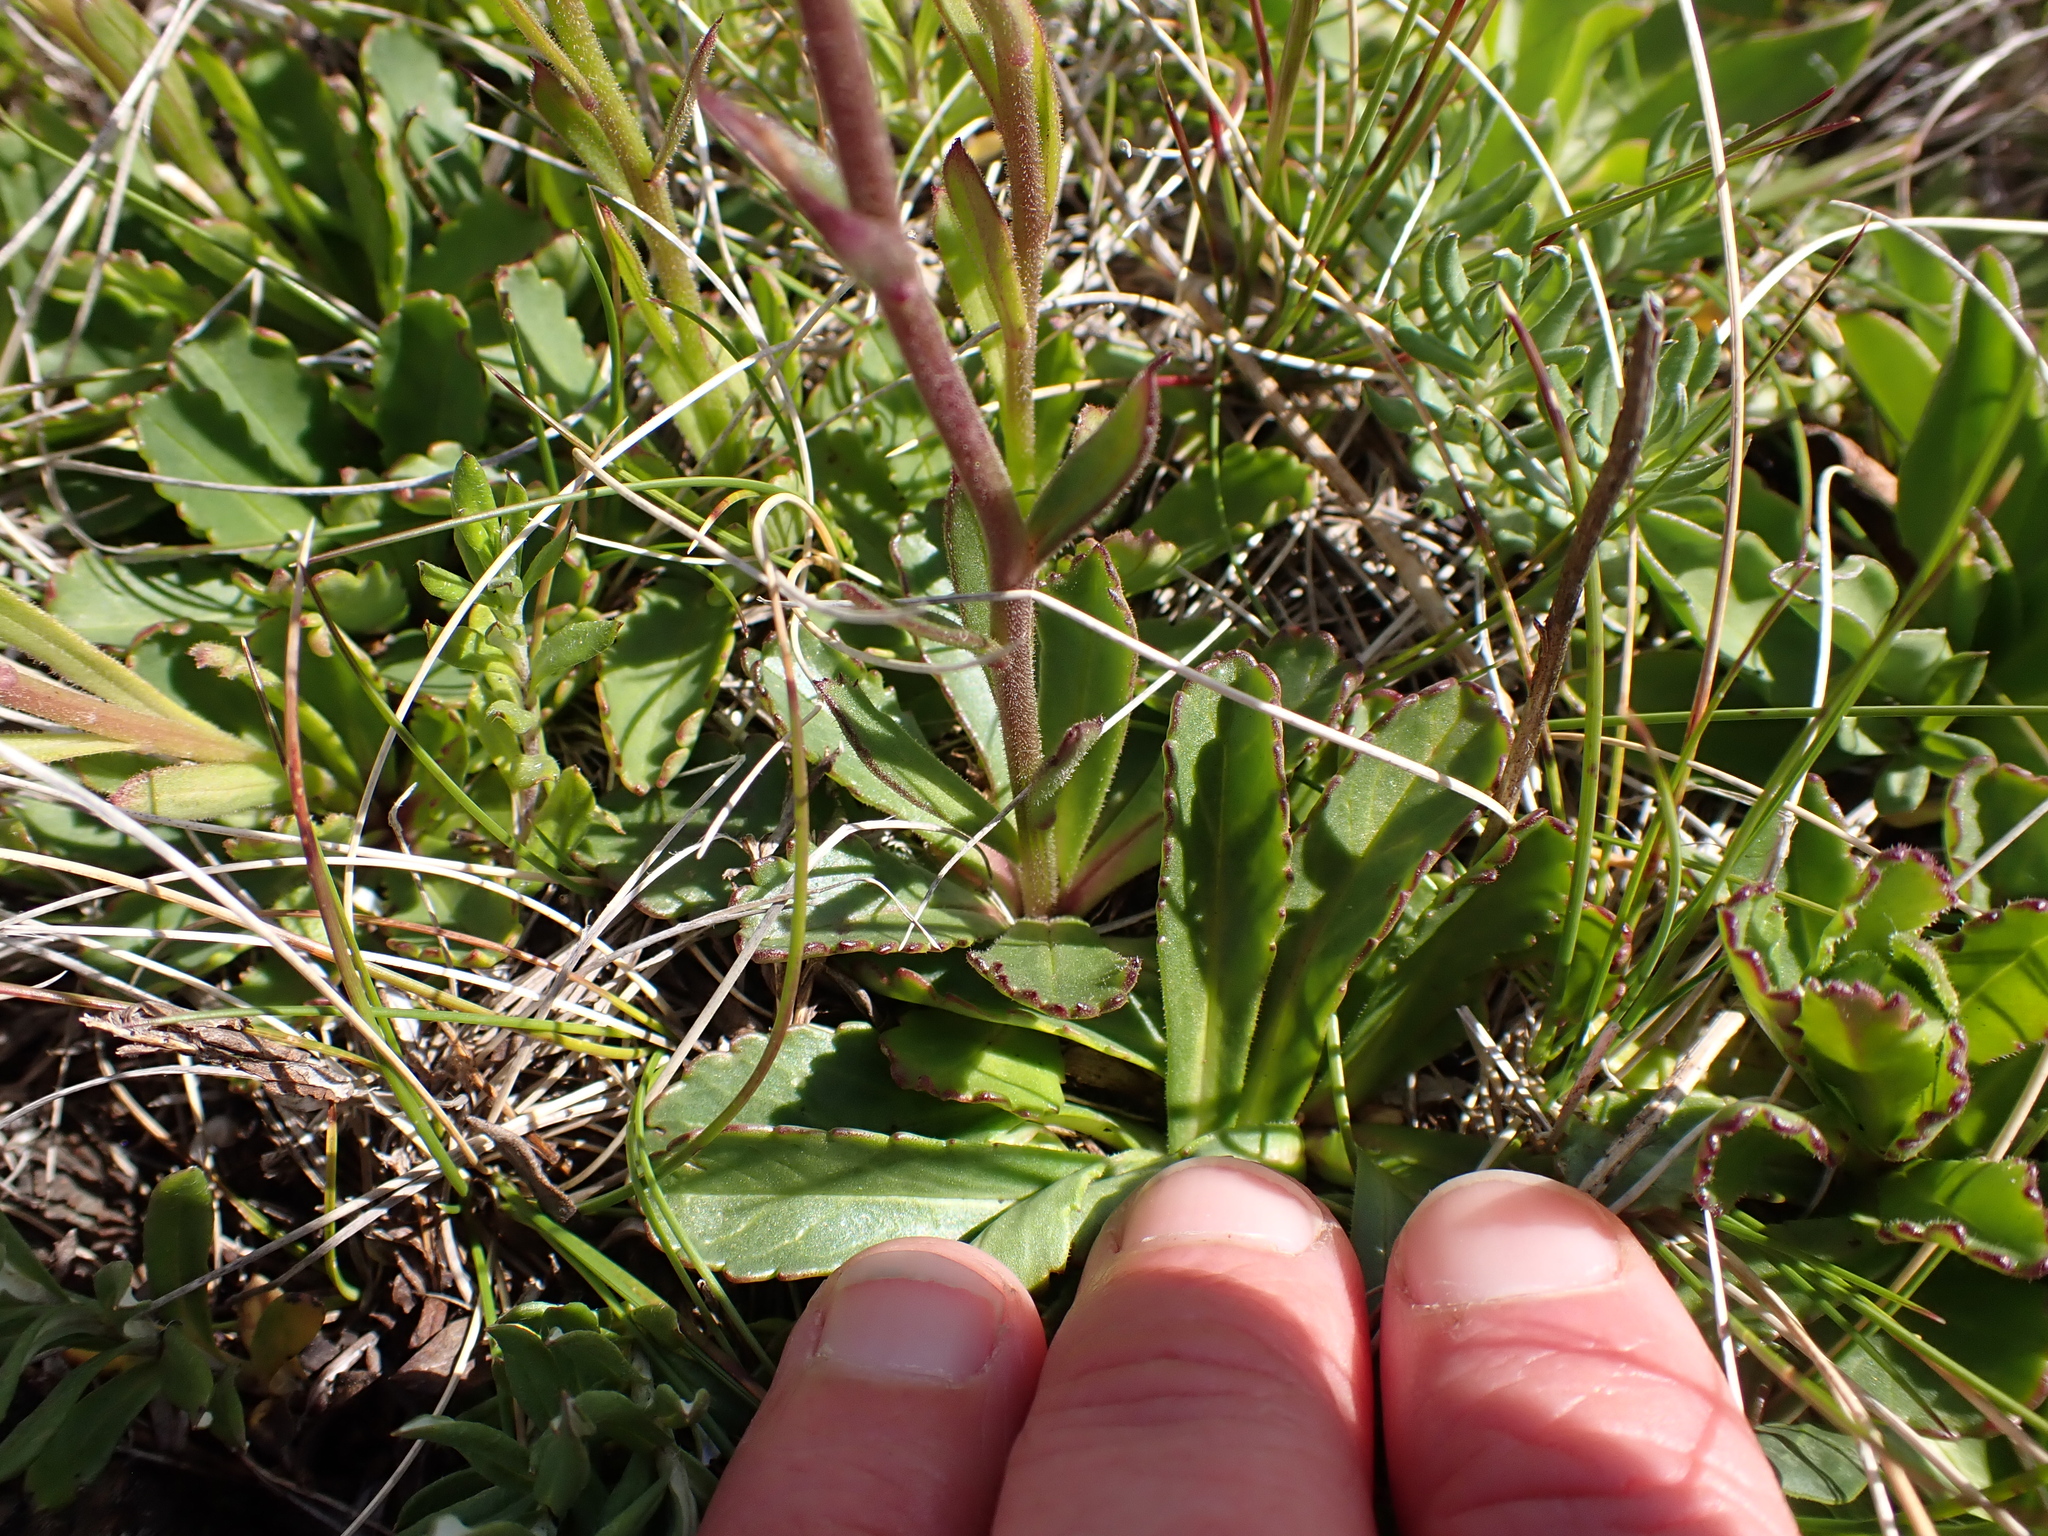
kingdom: Plantae
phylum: Tracheophyta
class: Magnoliopsida
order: Asterales
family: Asteraceae
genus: Brachyscome
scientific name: Brachyscome spathulata
